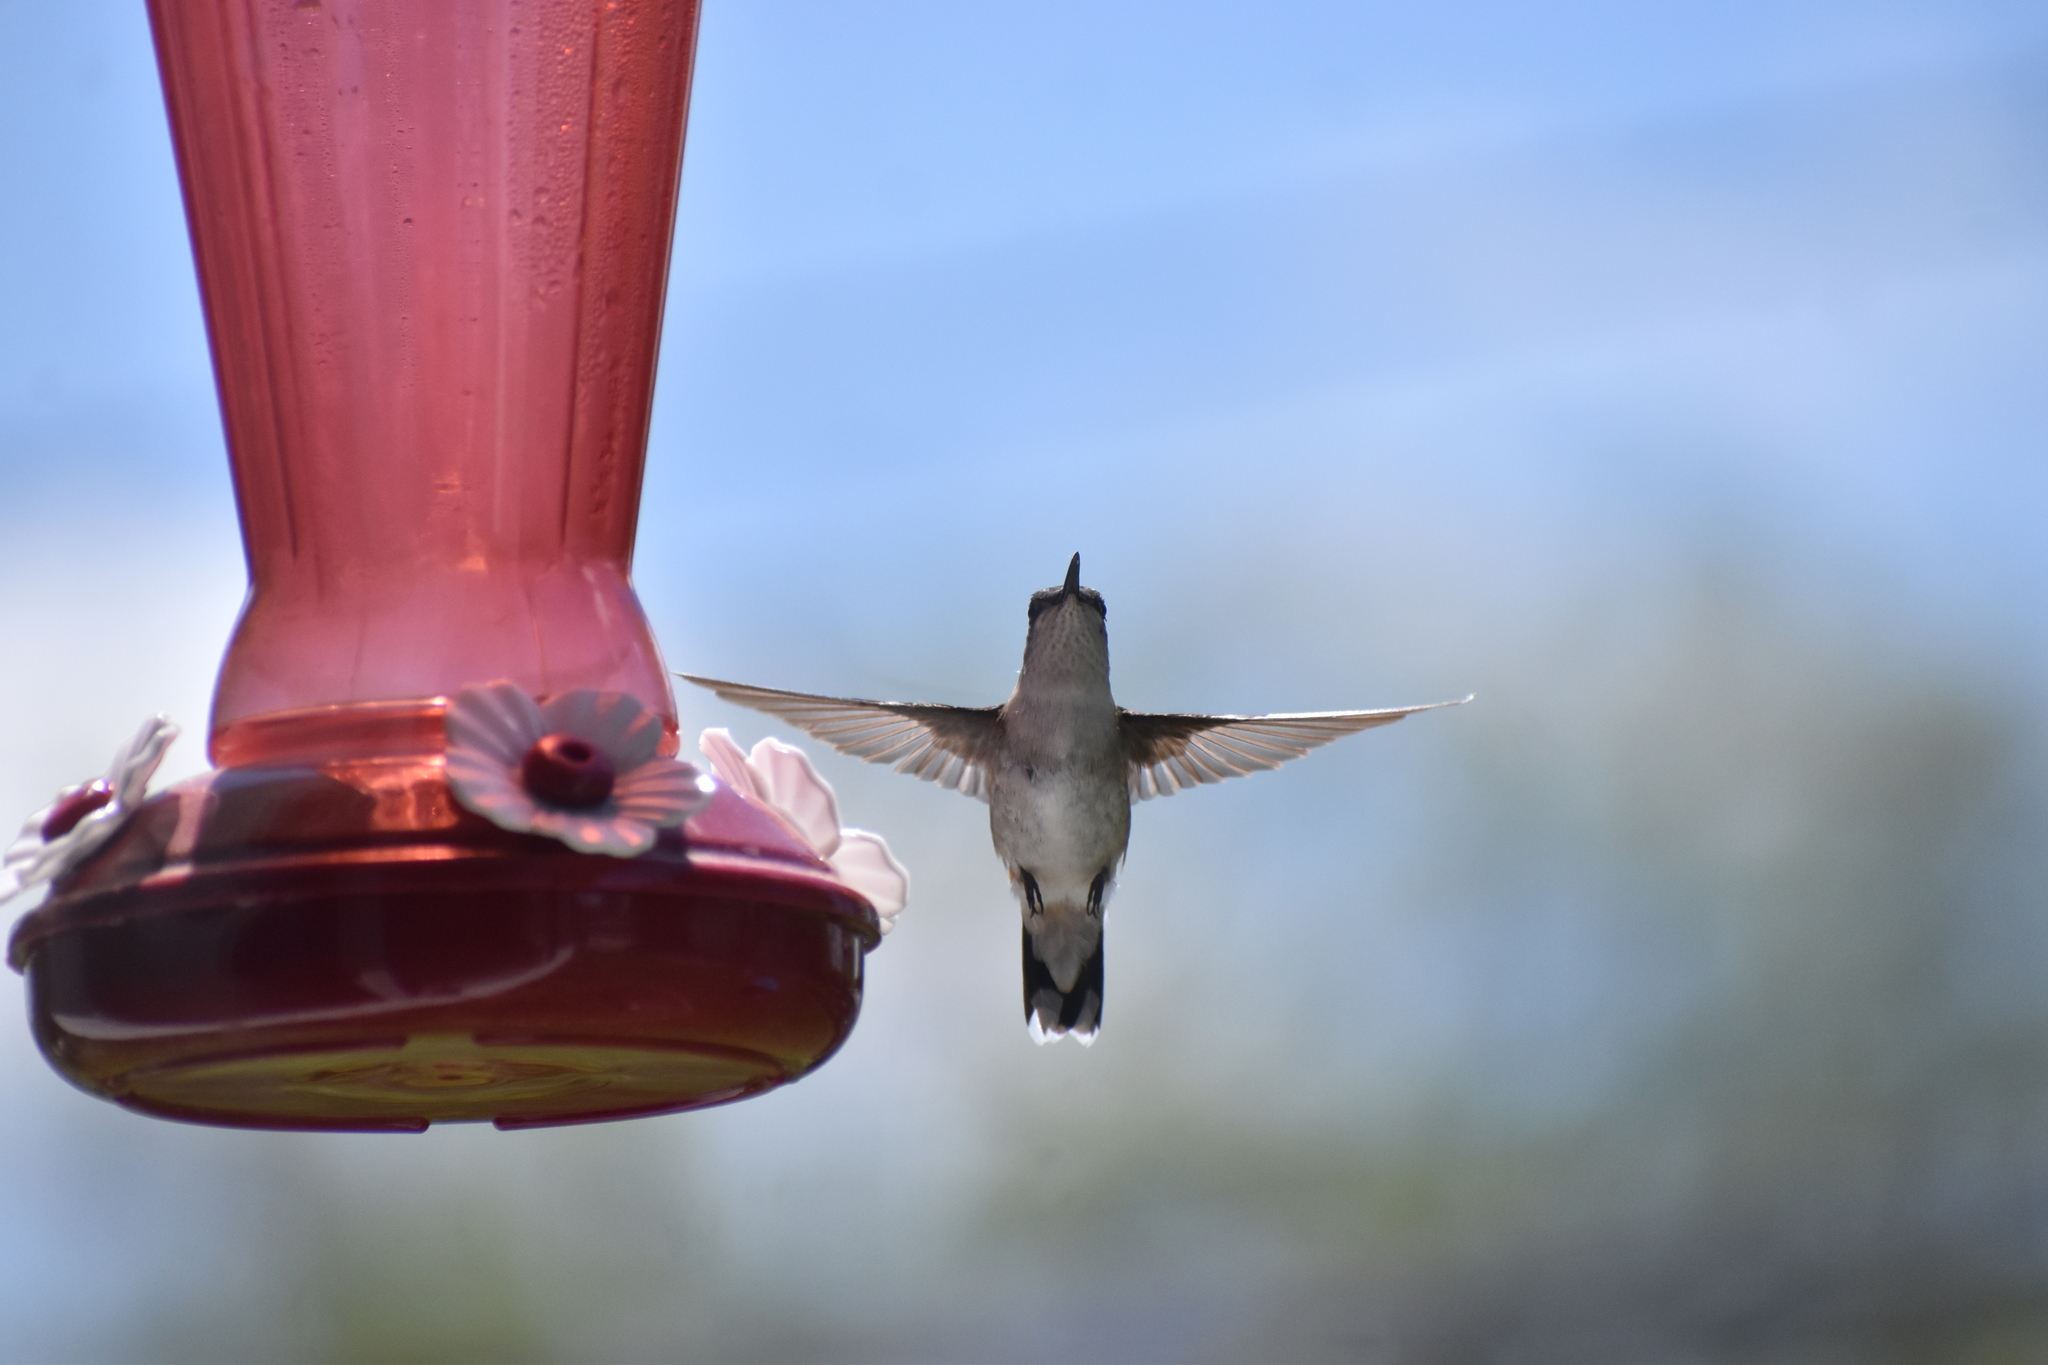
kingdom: Animalia
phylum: Chordata
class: Aves
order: Apodiformes
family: Trochilidae
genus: Archilochus
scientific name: Archilochus colubris
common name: Ruby-throated hummingbird
